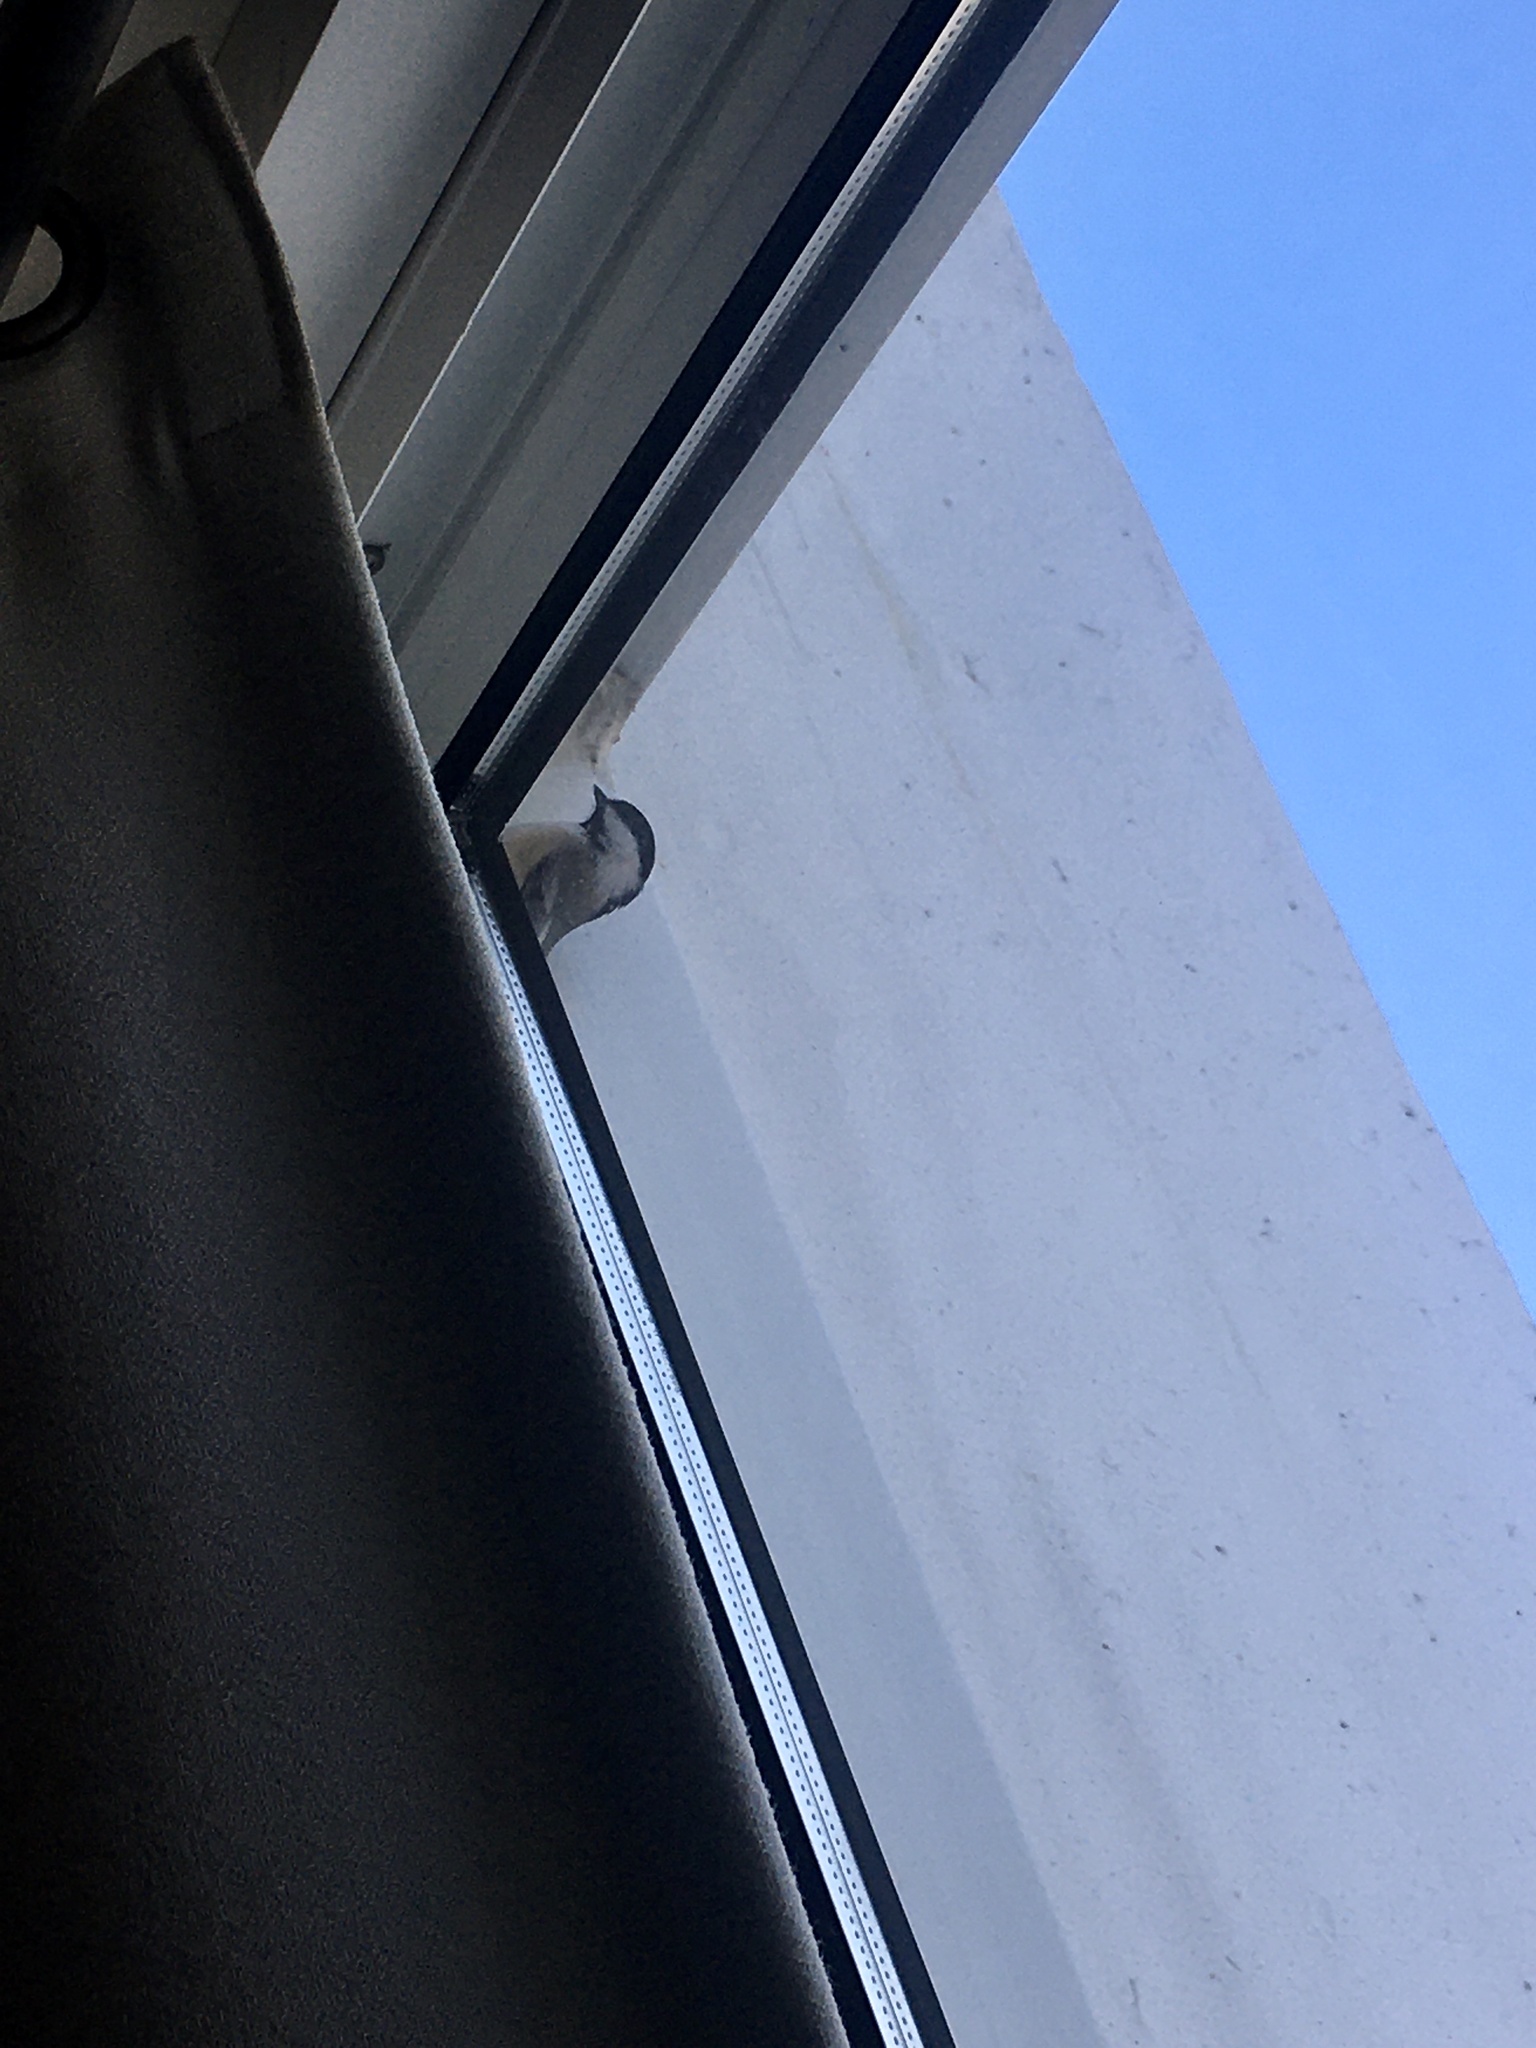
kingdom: Animalia
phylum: Chordata
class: Aves
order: Passeriformes
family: Paridae
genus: Poecile
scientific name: Poecile atricapillus
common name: Black-capped chickadee
